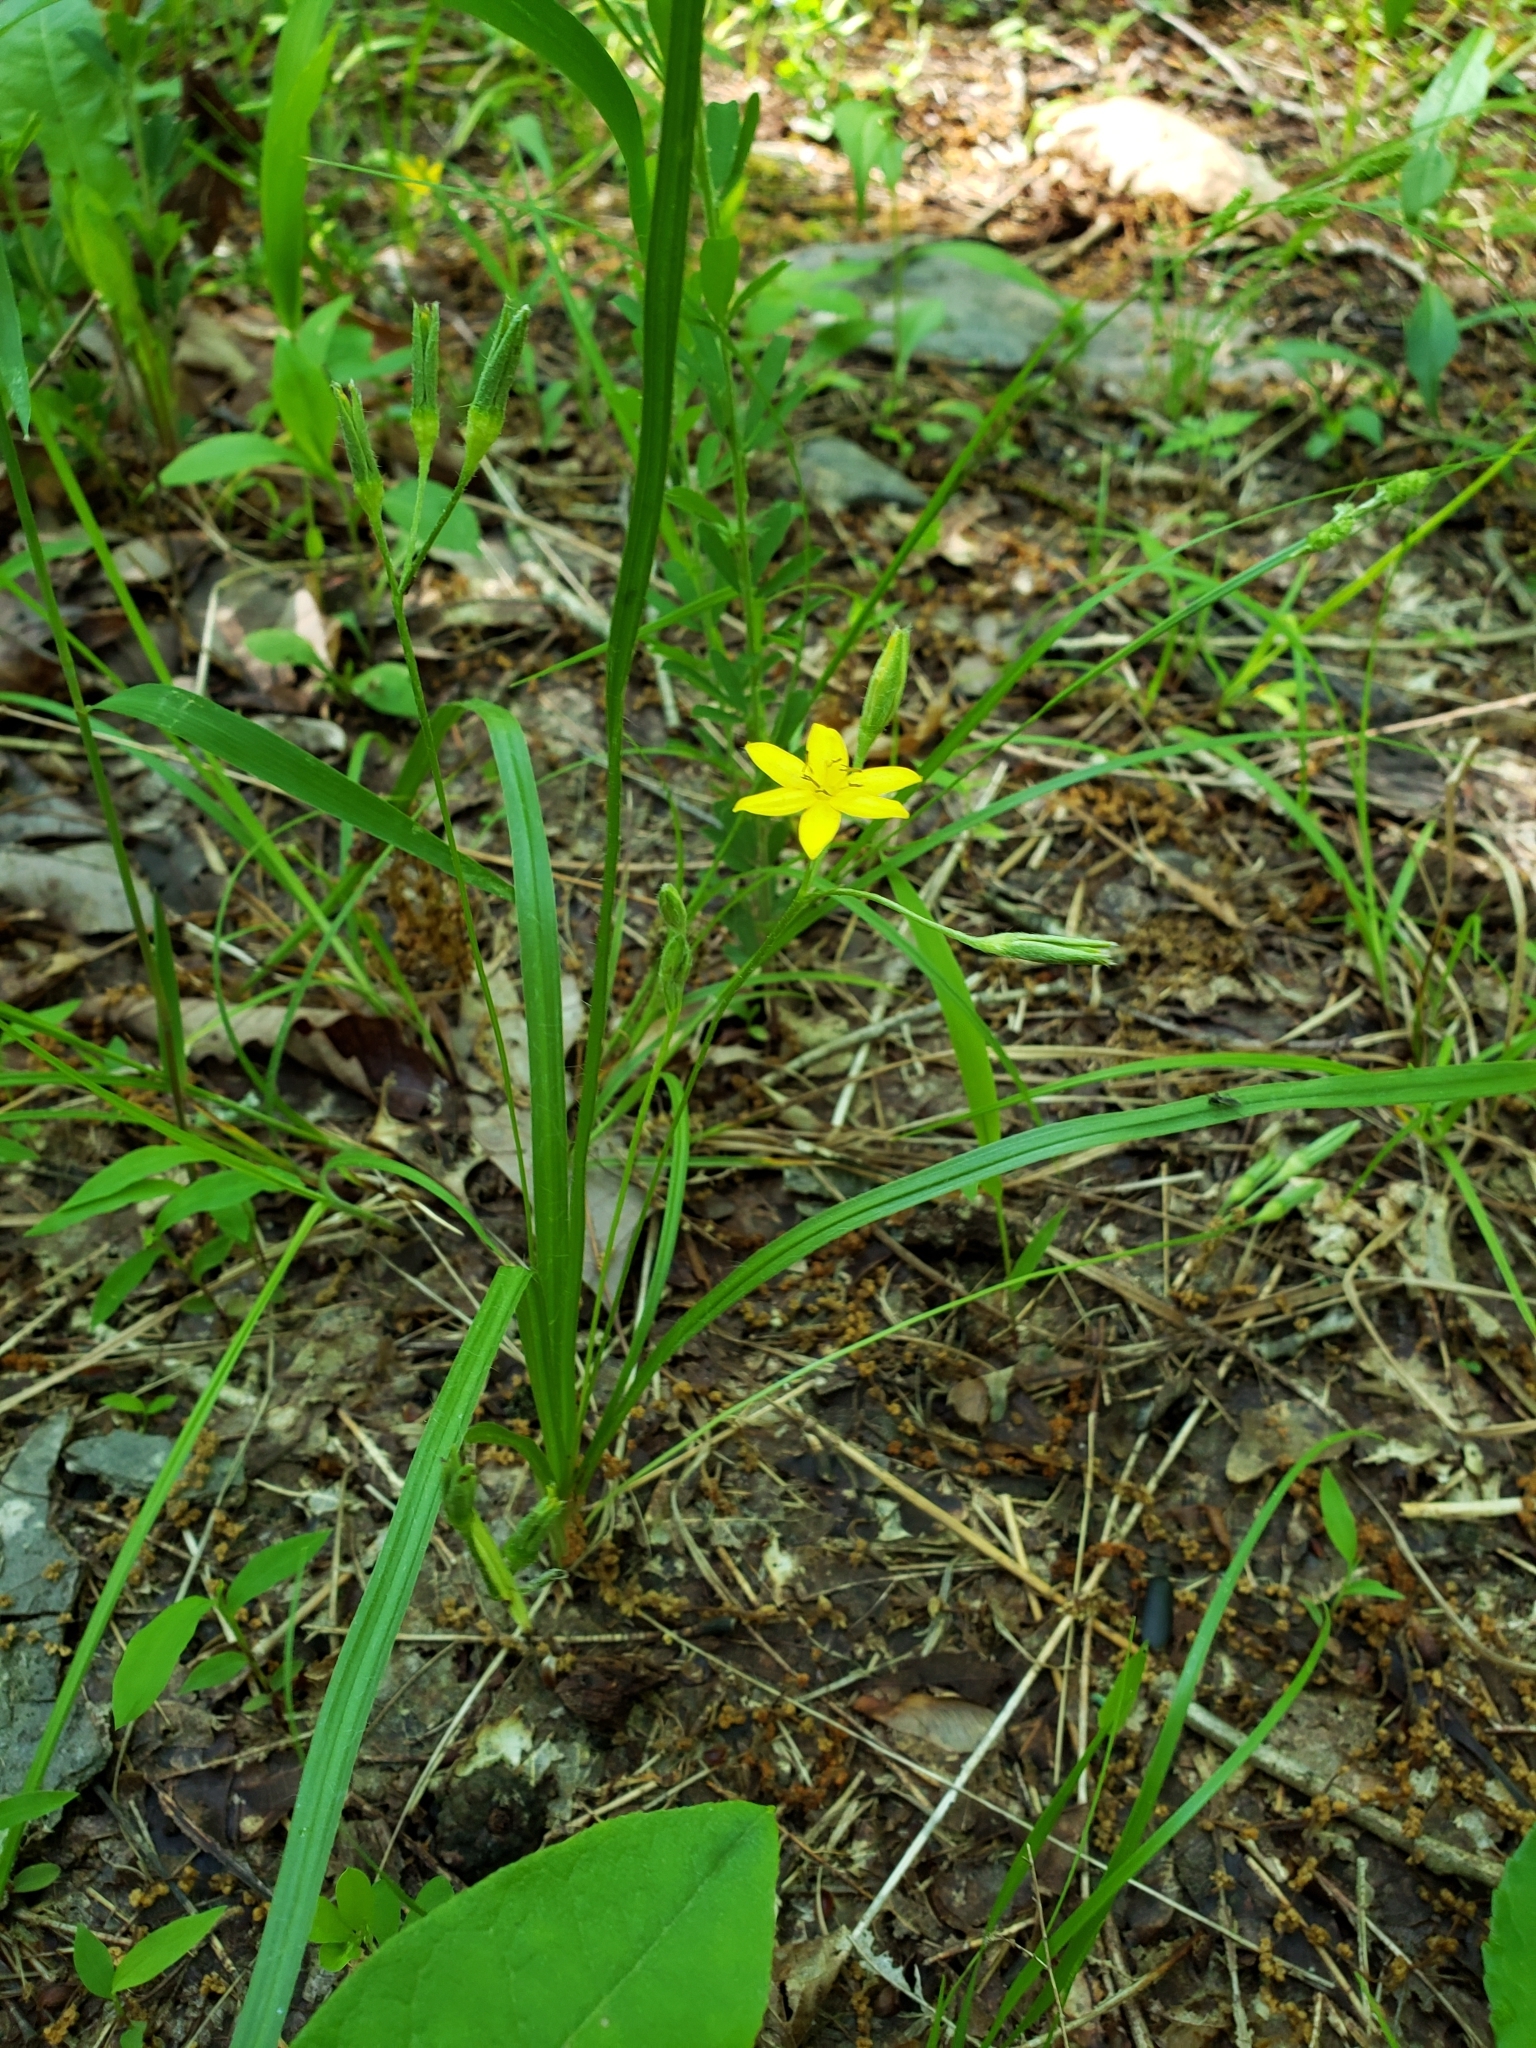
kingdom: Plantae
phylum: Tracheophyta
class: Liliopsida
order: Asparagales
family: Hypoxidaceae
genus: Hypoxis
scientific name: Hypoxis hirsuta
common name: Common goldstar
